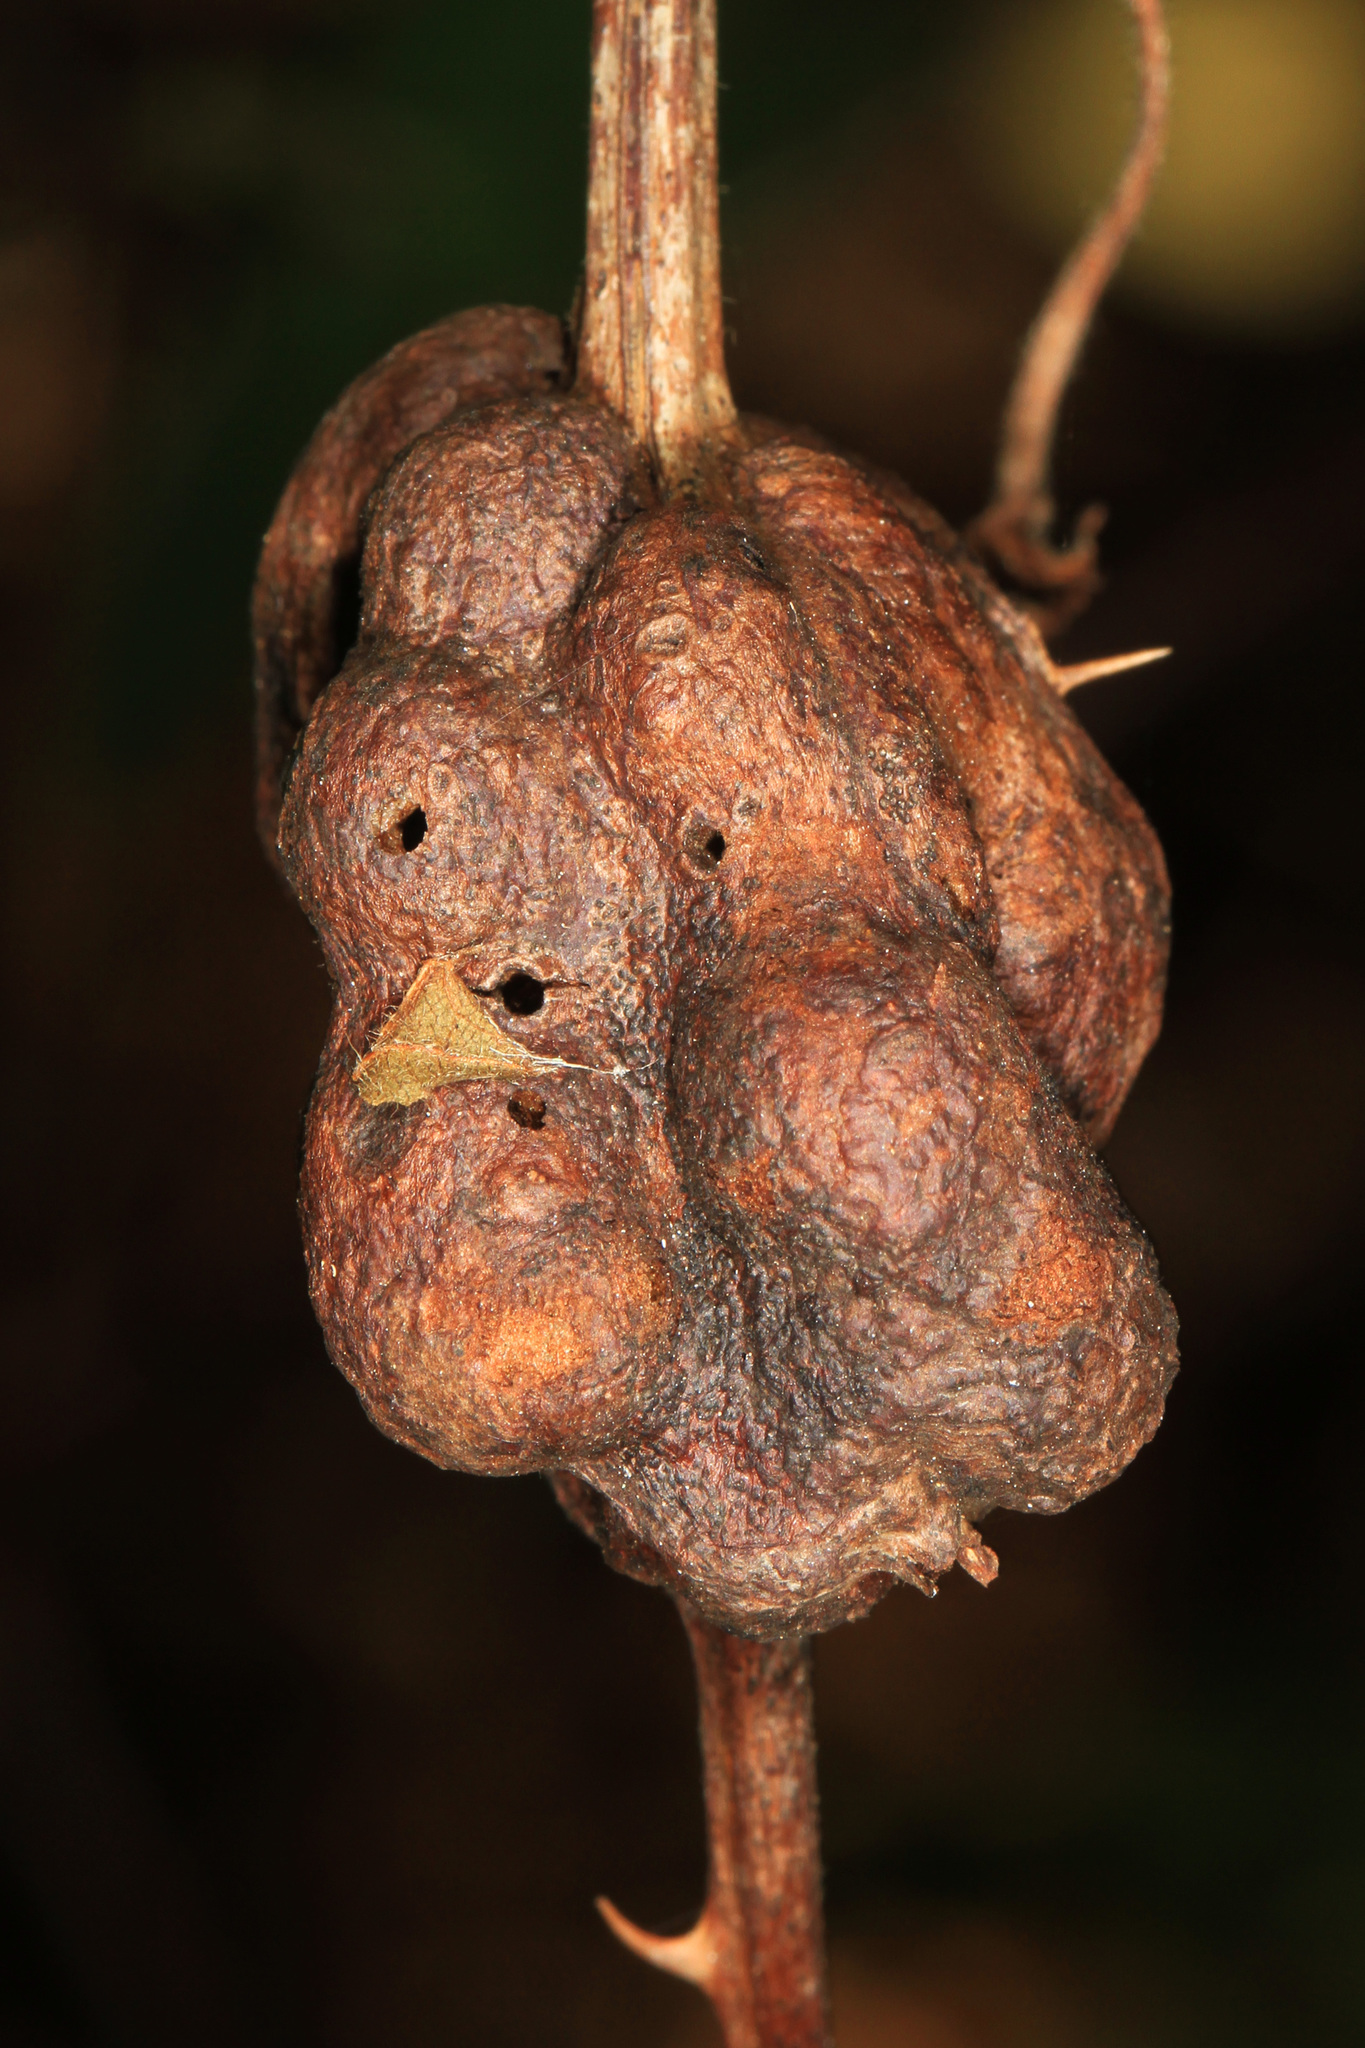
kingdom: Animalia
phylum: Arthropoda
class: Insecta
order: Hymenoptera
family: Cynipidae
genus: Diastrophus
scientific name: Diastrophus
